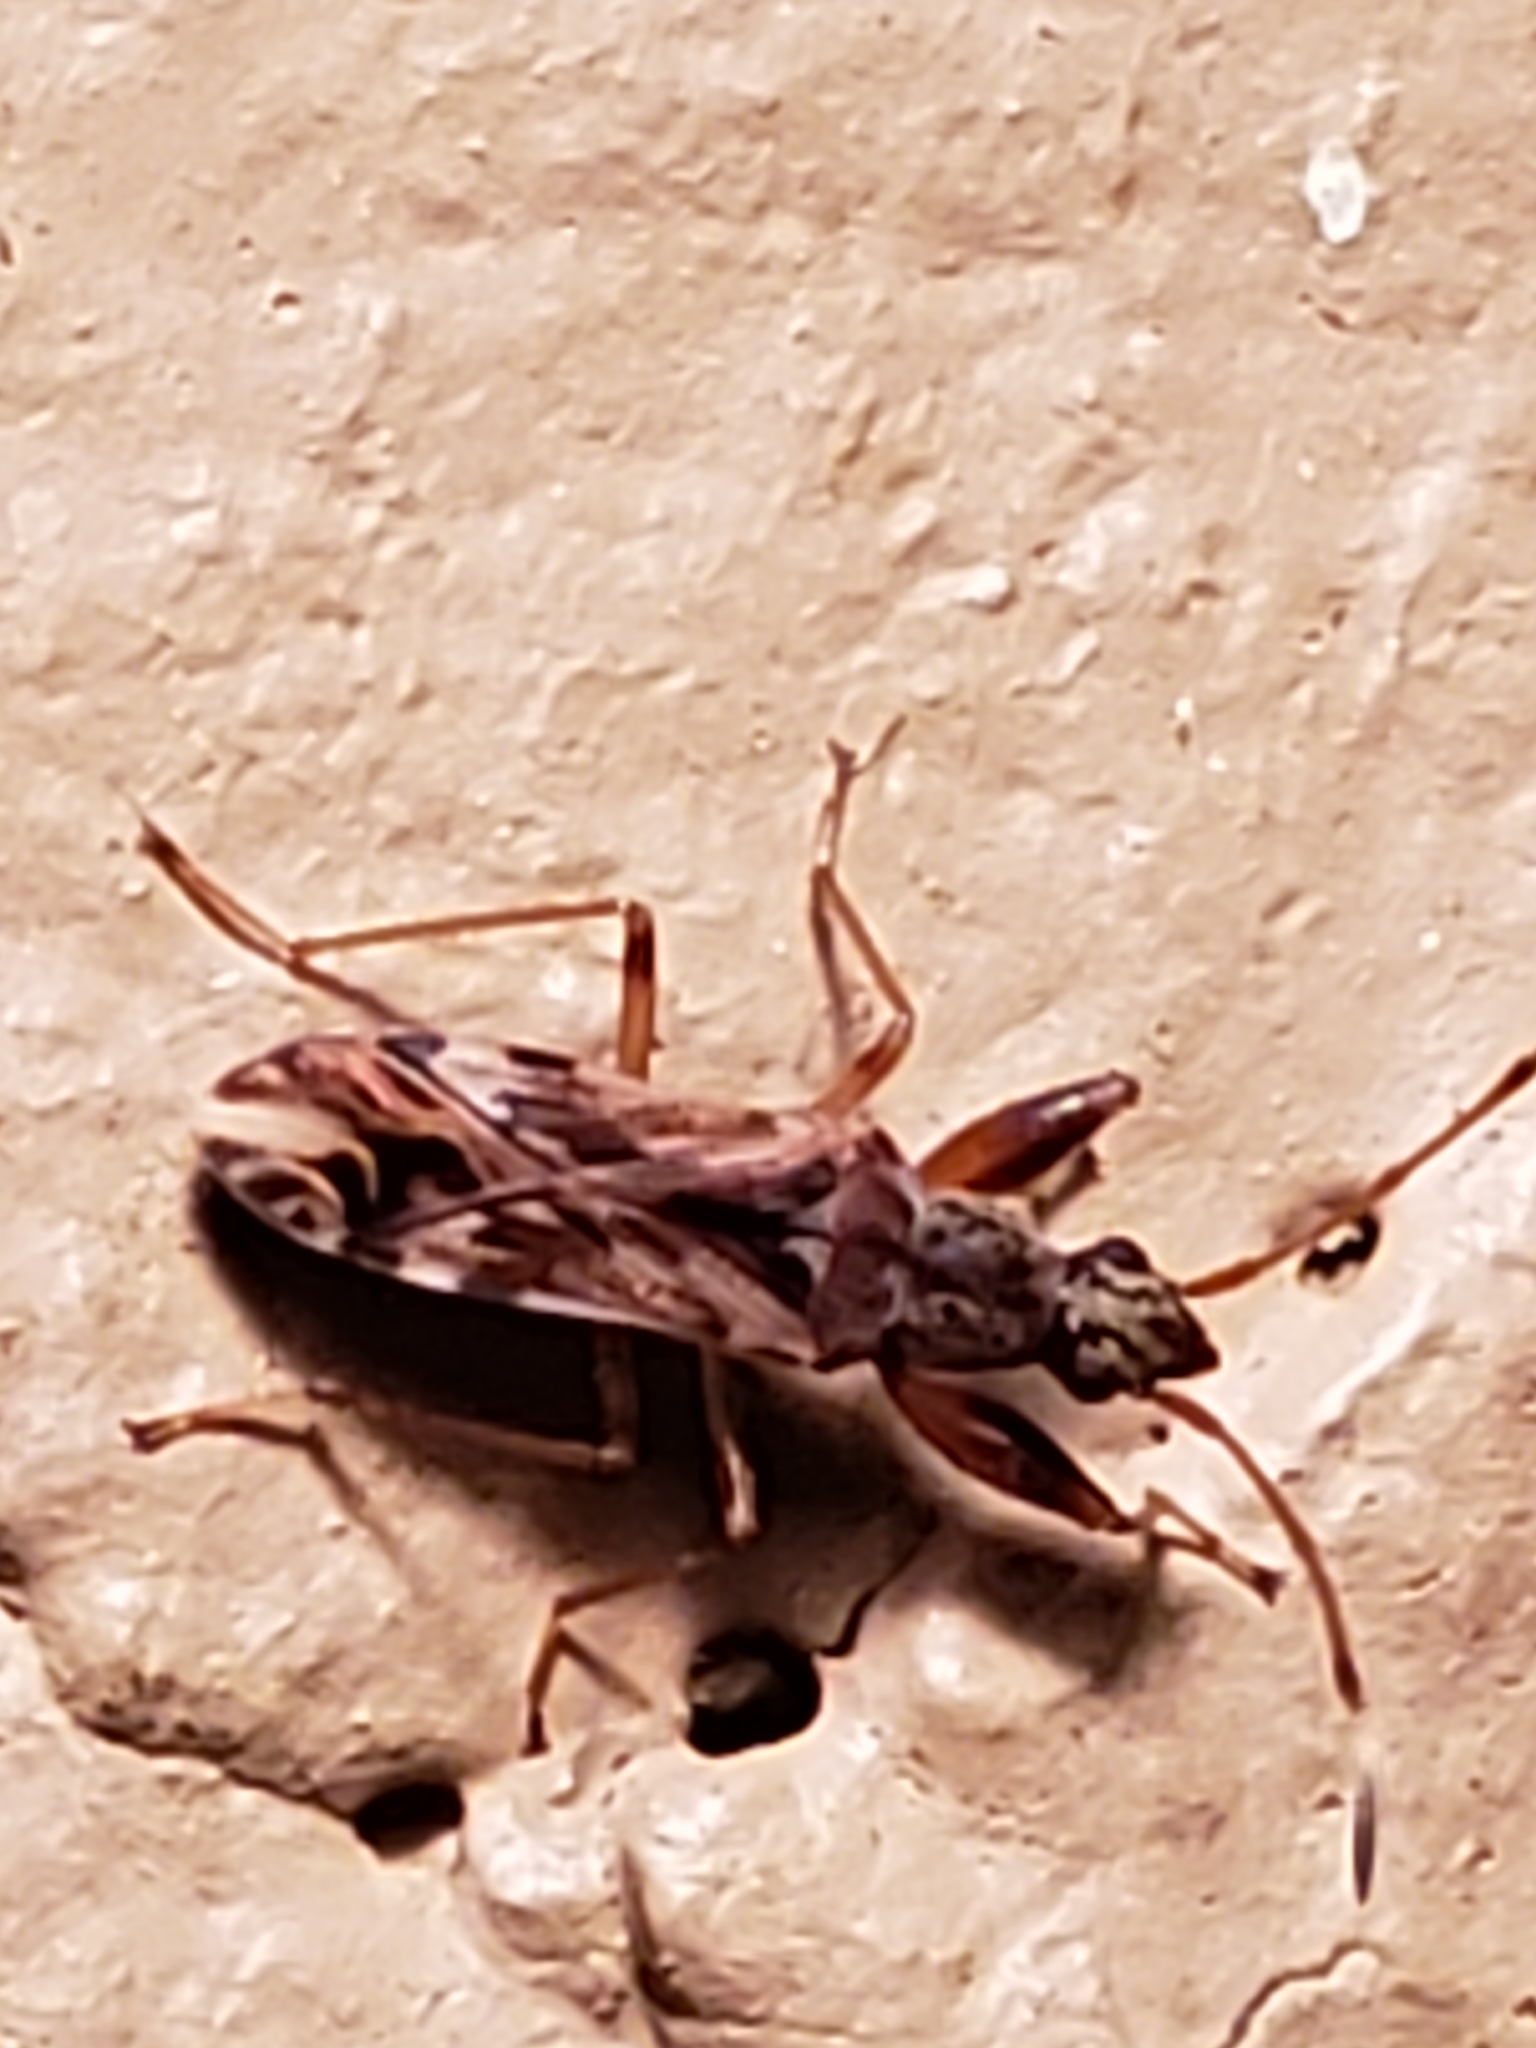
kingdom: Animalia
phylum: Arthropoda
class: Insecta
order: Hemiptera
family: Rhyparochromidae
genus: Neopamera
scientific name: Neopamera albocincta
